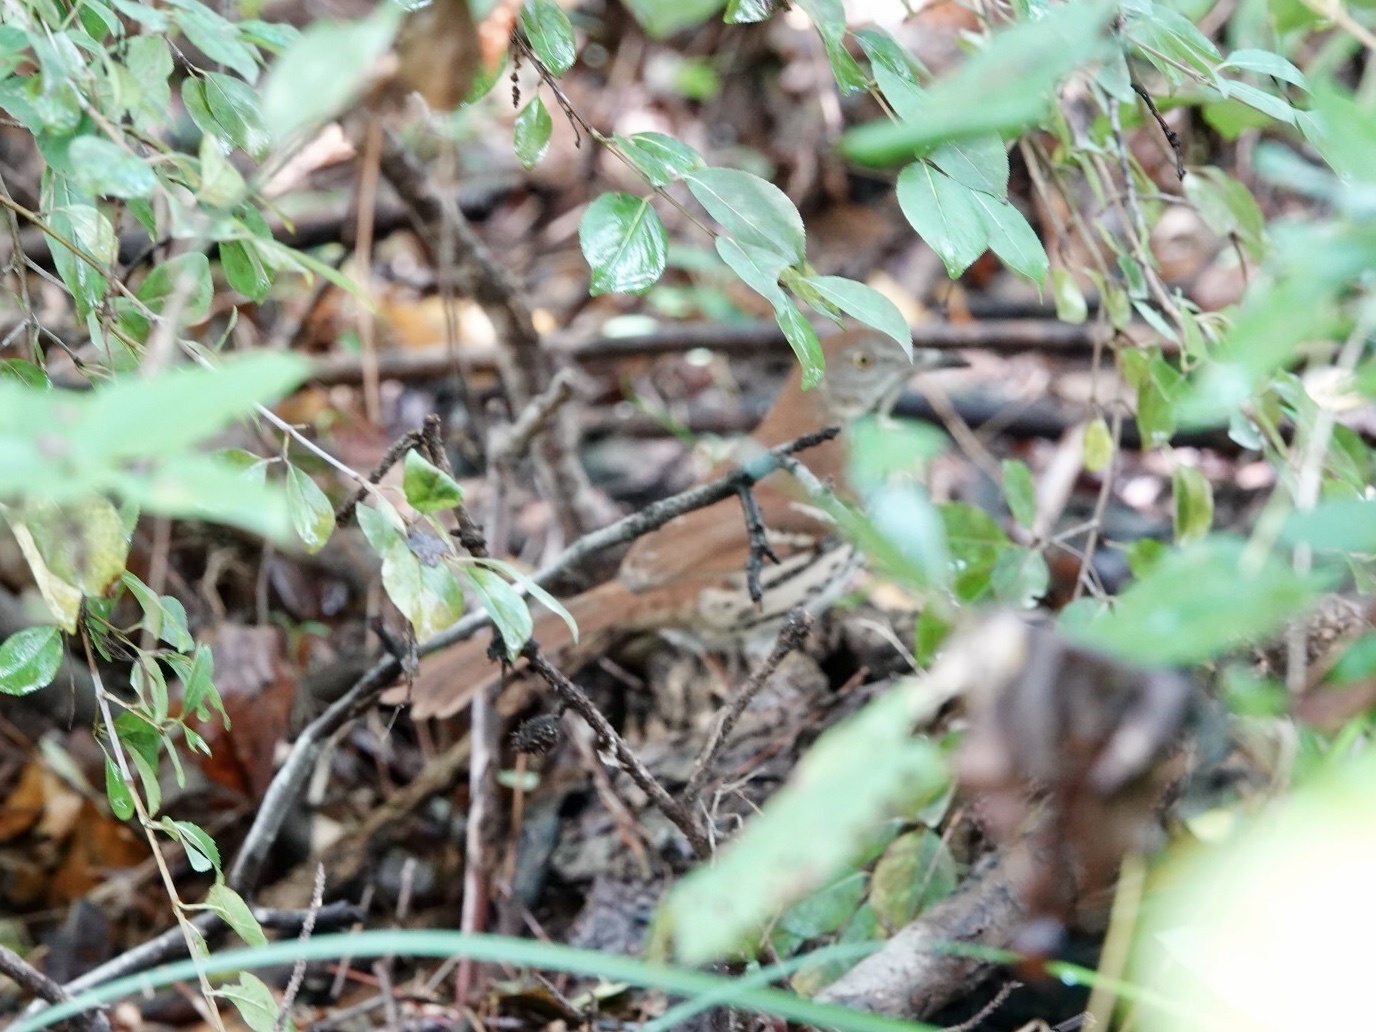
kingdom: Animalia
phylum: Chordata
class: Aves
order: Passeriformes
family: Mimidae
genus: Toxostoma
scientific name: Toxostoma rufum
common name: Brown thrasher
